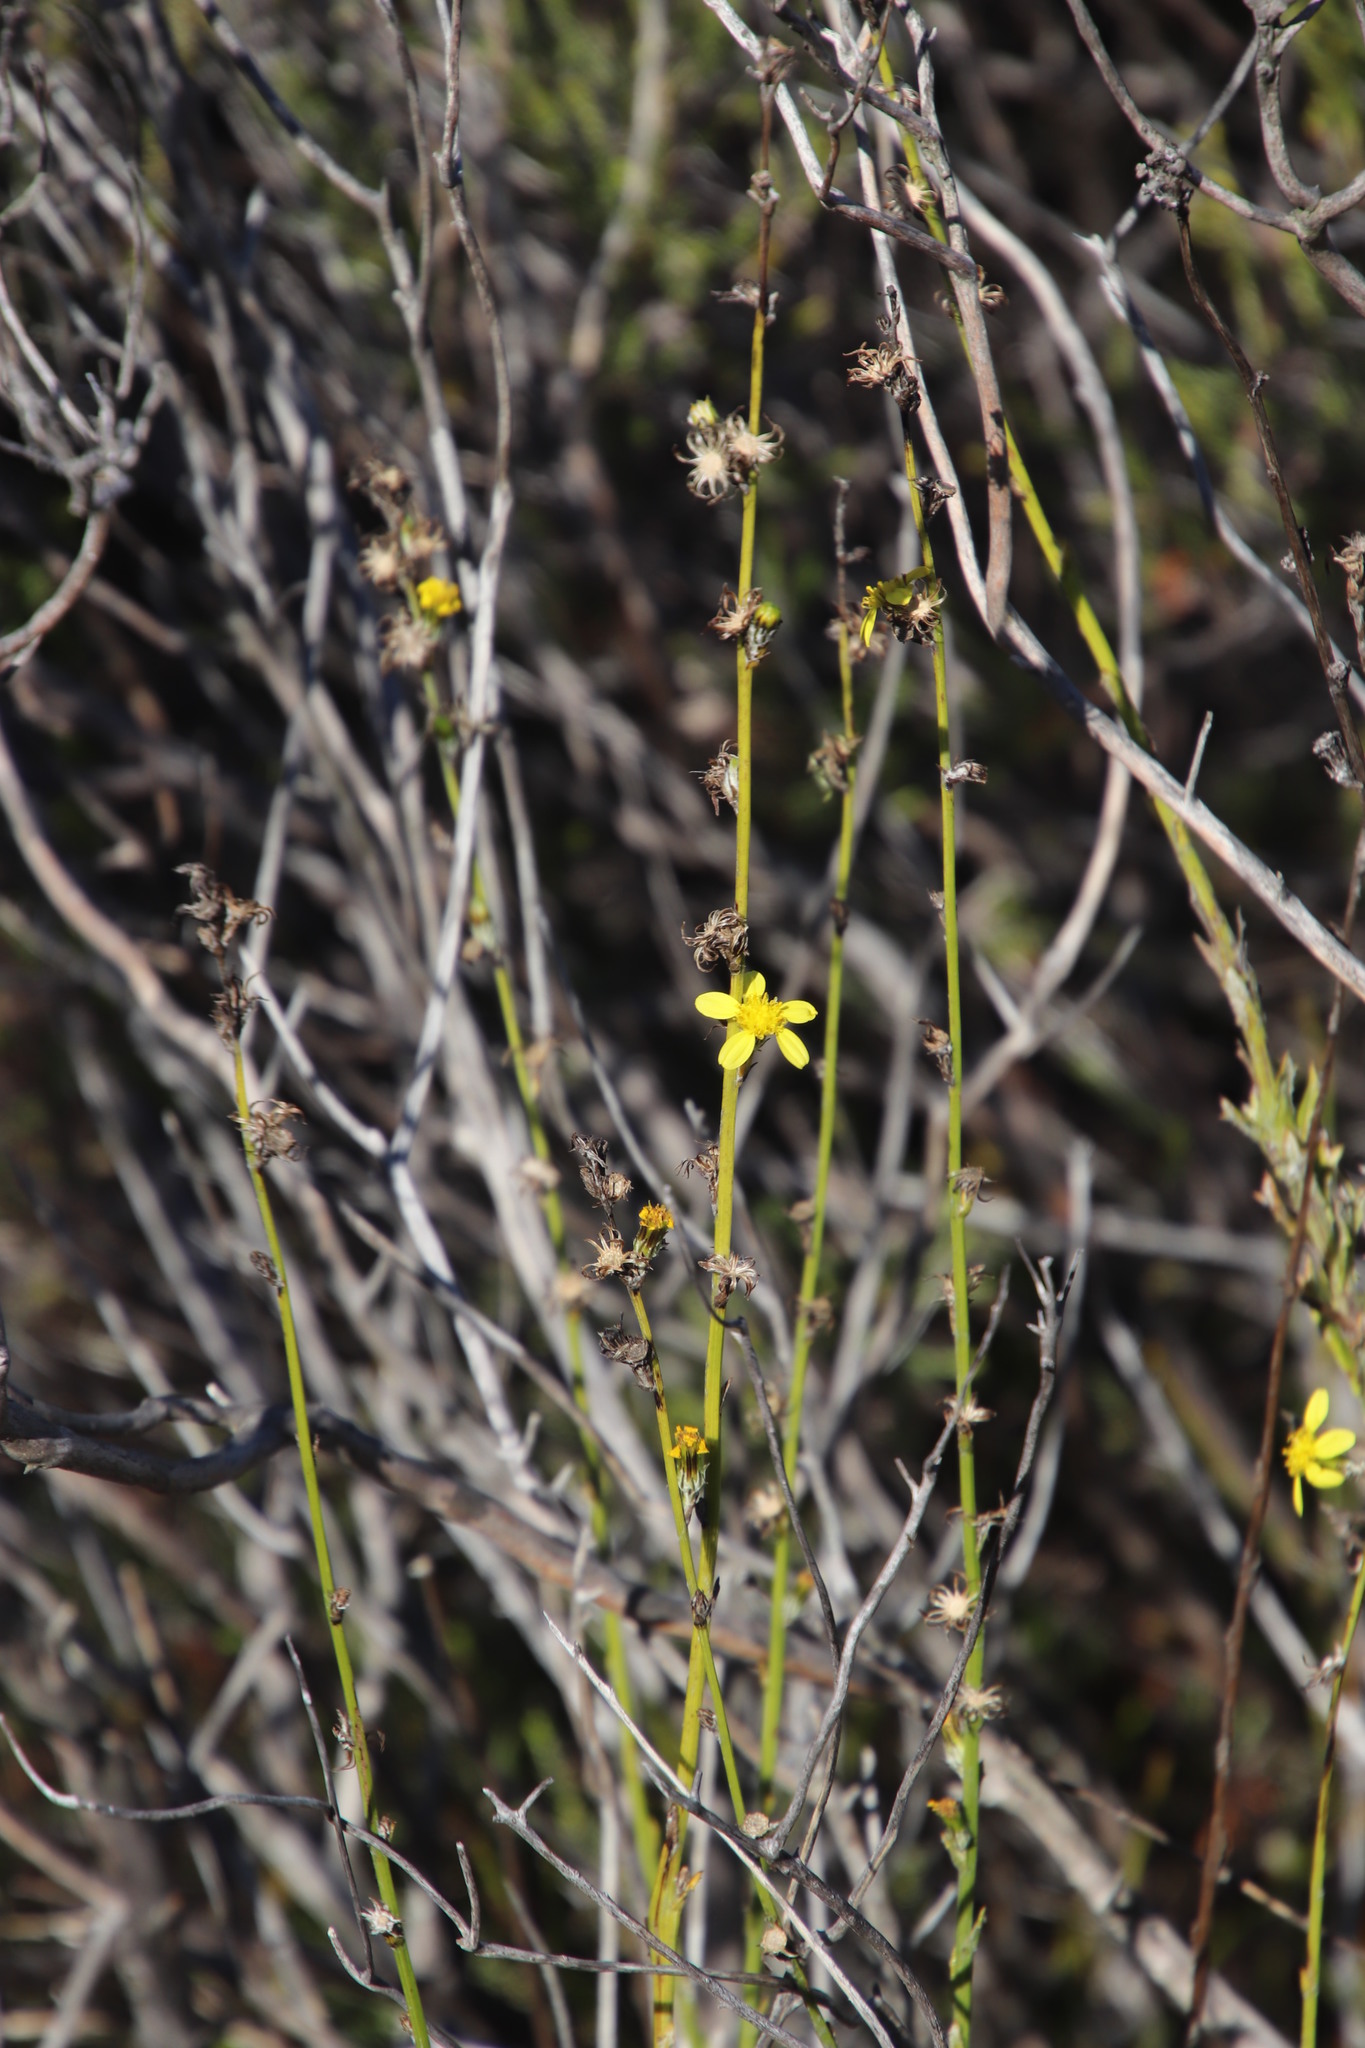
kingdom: Plantae
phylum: Tracheophyta
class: Magnoliopsida
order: Asterales
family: Asteraceae
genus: Senecio
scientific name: Senecio pubigerus
